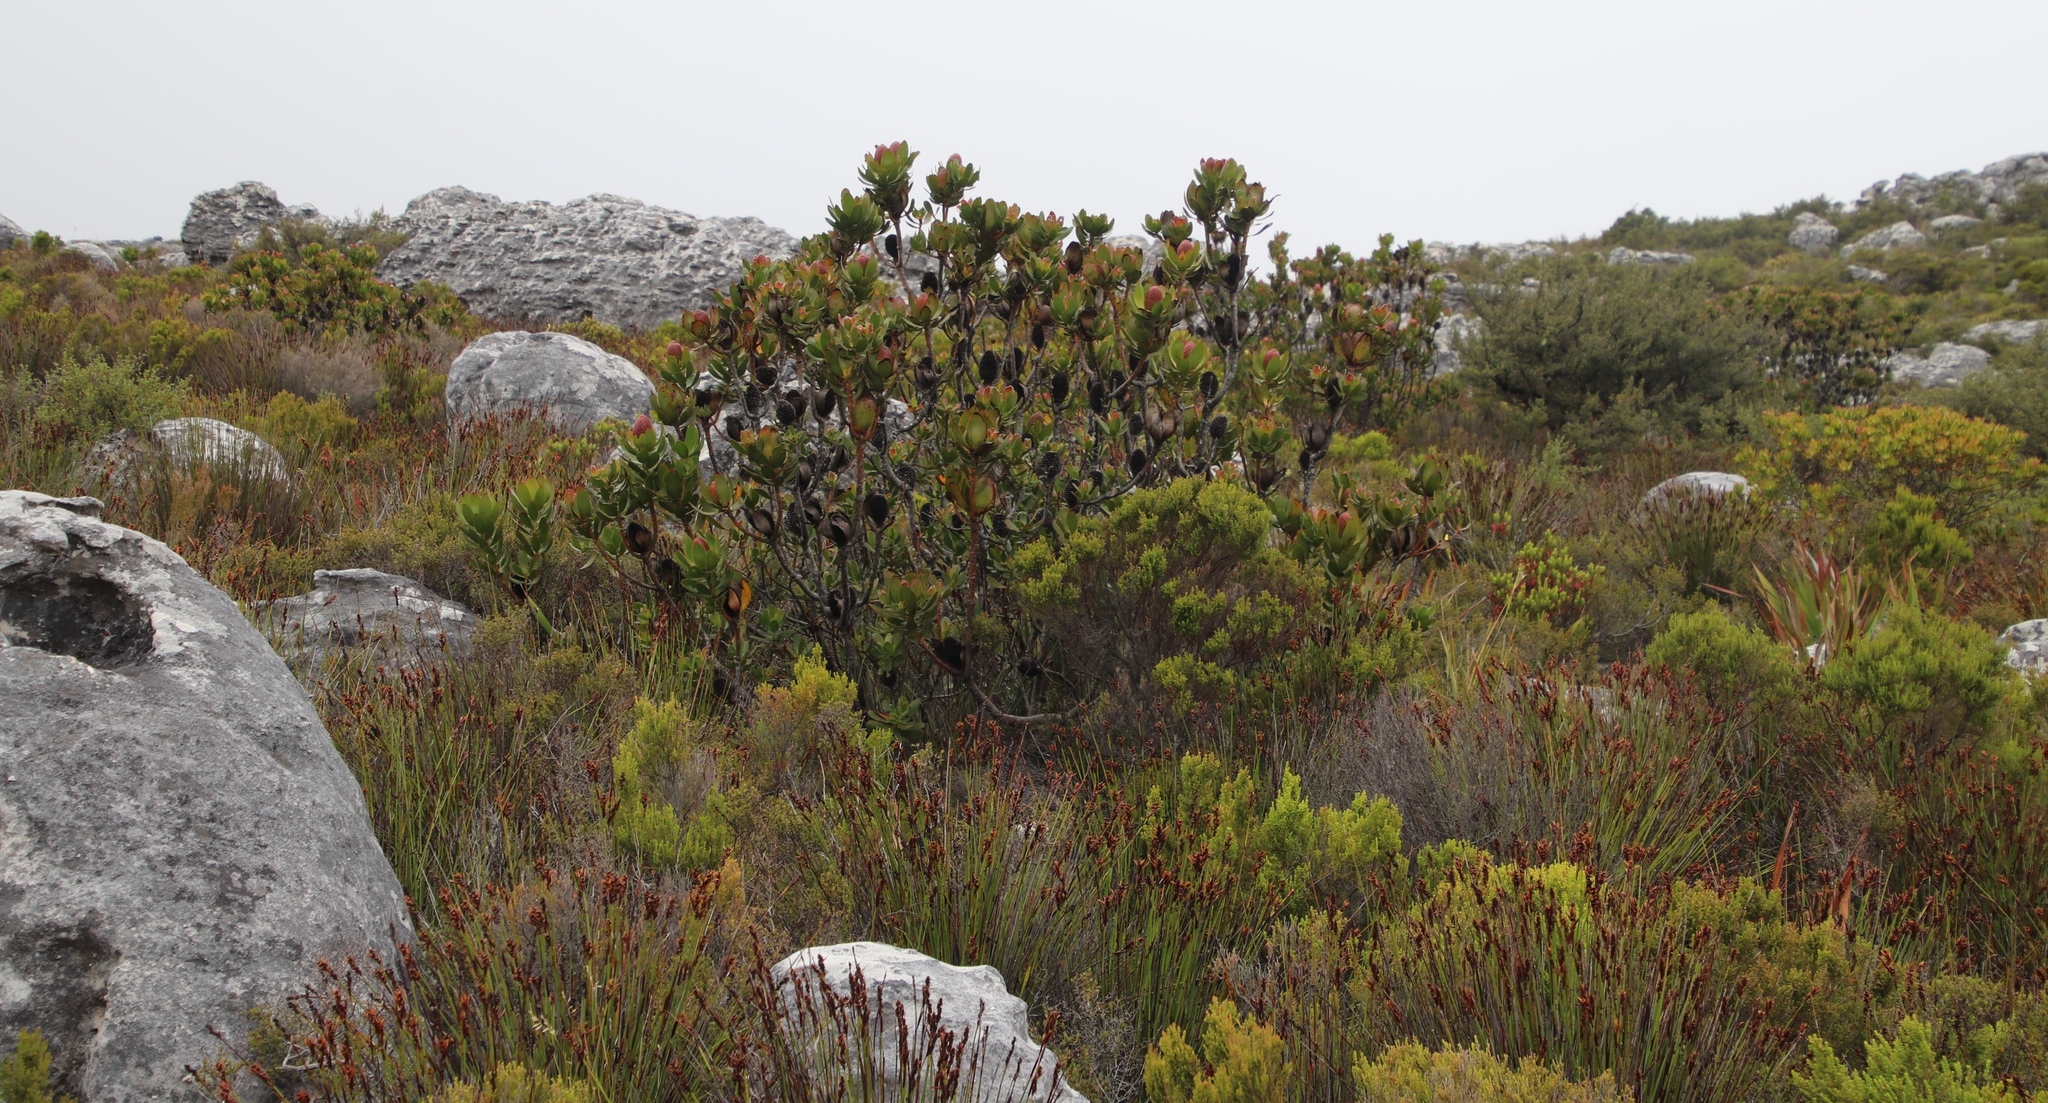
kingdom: Plantae
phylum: Tracheophyta
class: Magnoliopsida
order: Proteales
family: Proteaceae
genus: Leucadendron
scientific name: Leucadendron strobilinum
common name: Mountain rose
